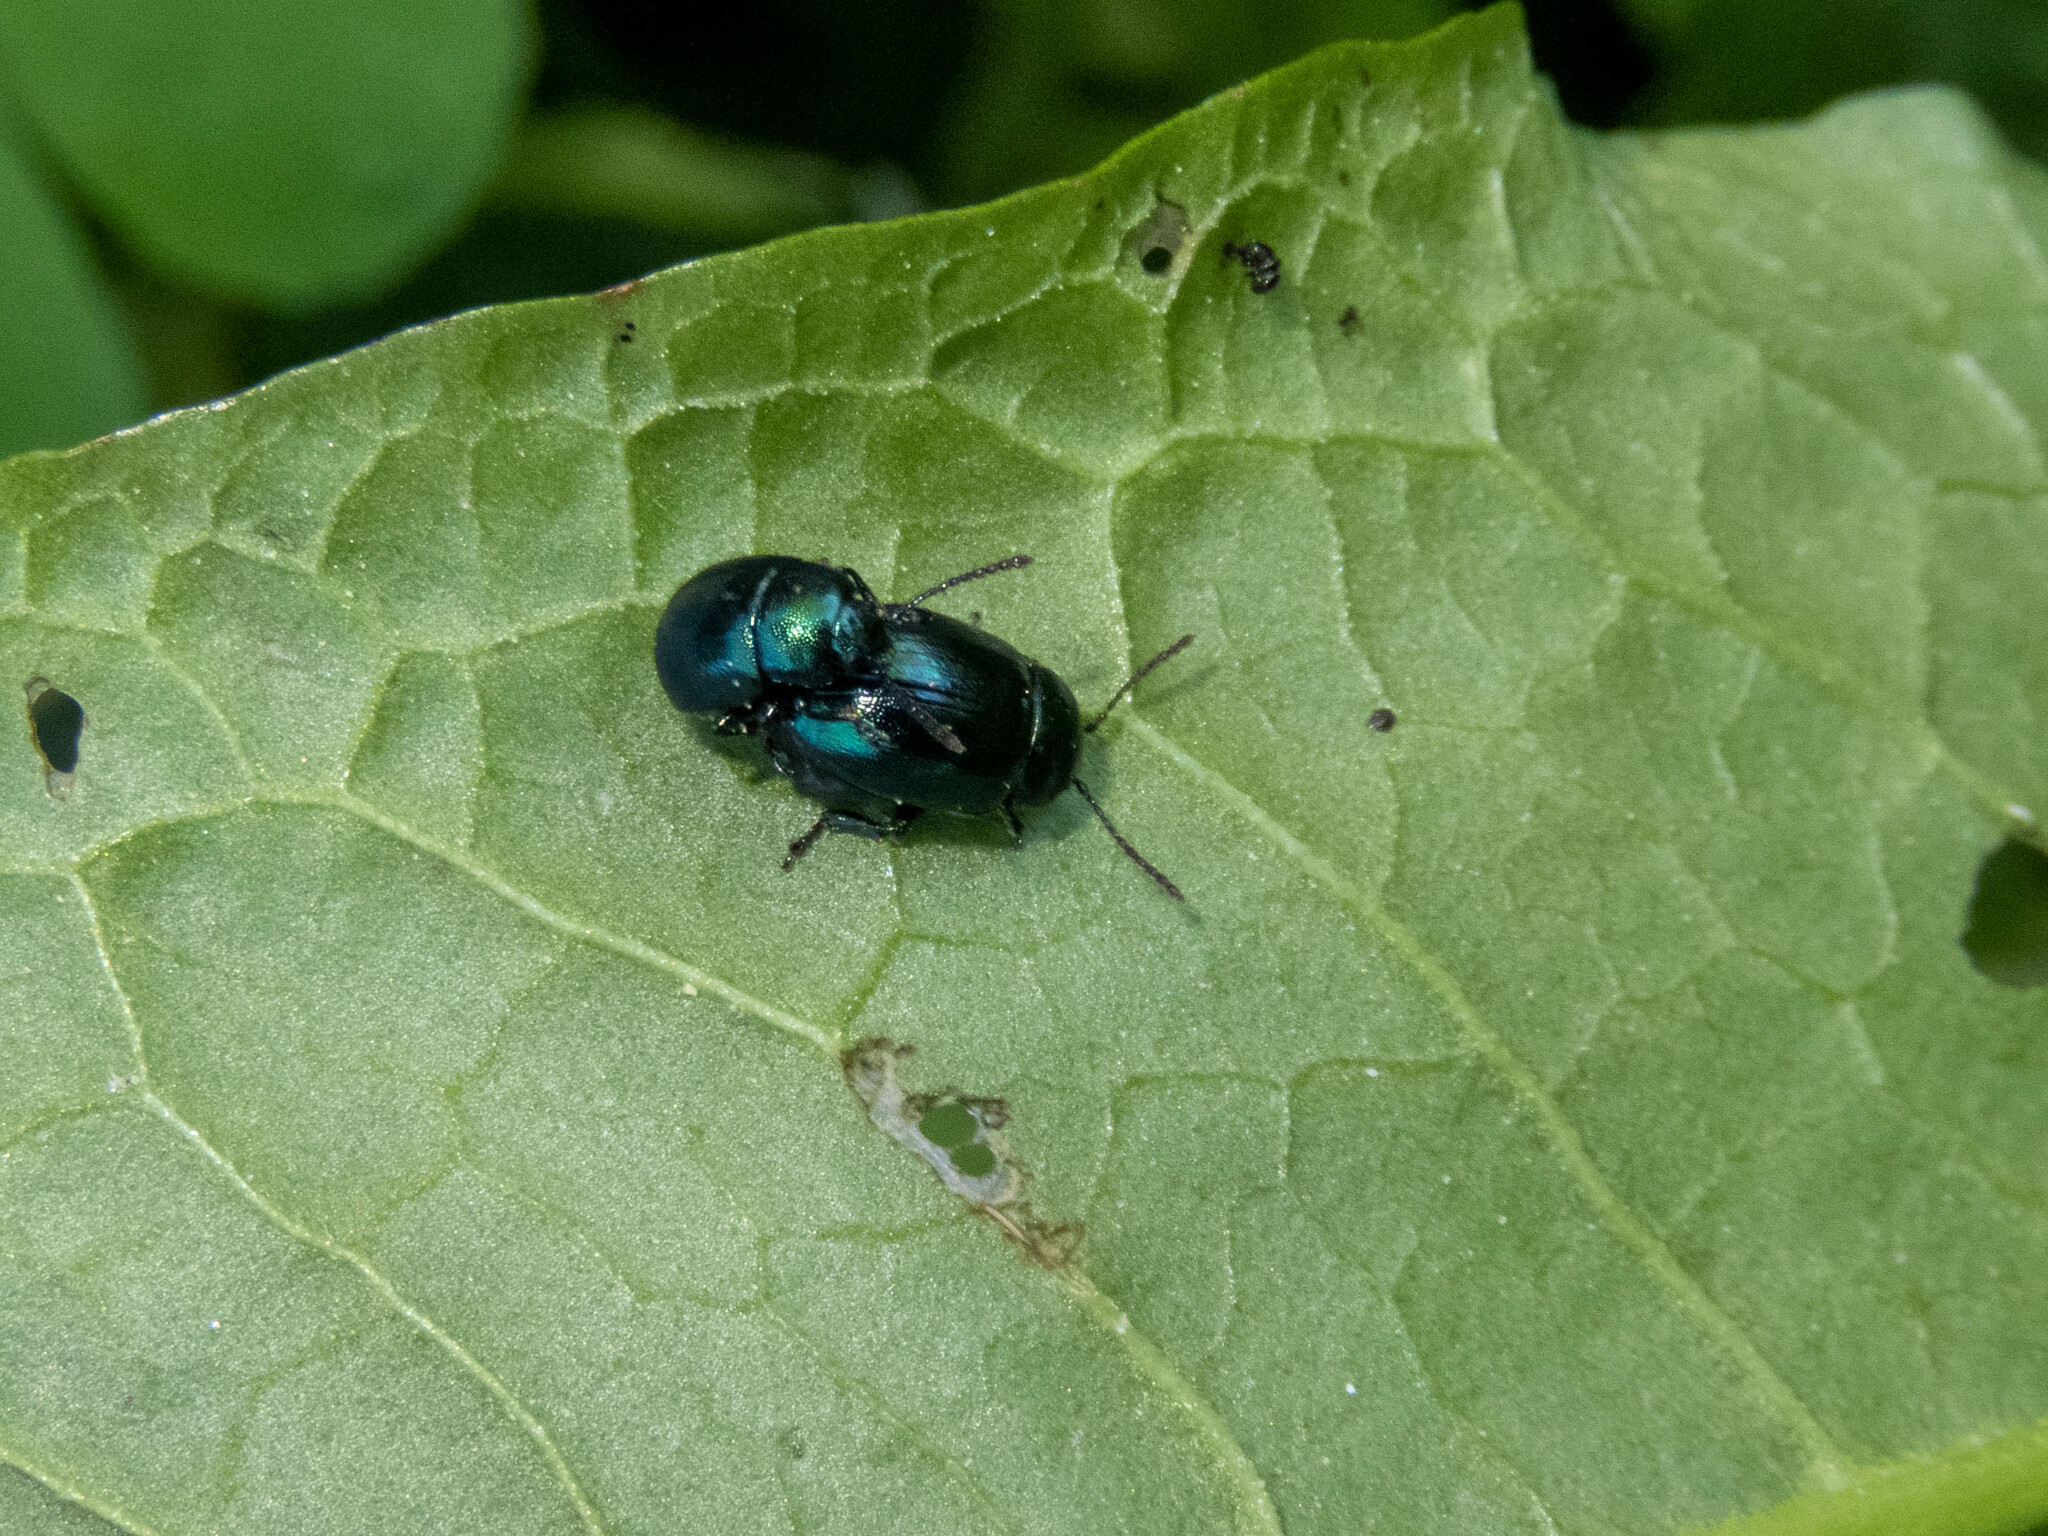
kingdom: Animalia
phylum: Arthropoda
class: Insecta
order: Coleoptera
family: Chrysomelidae
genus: Gastrophysa
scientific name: Gastrophysa janthina
